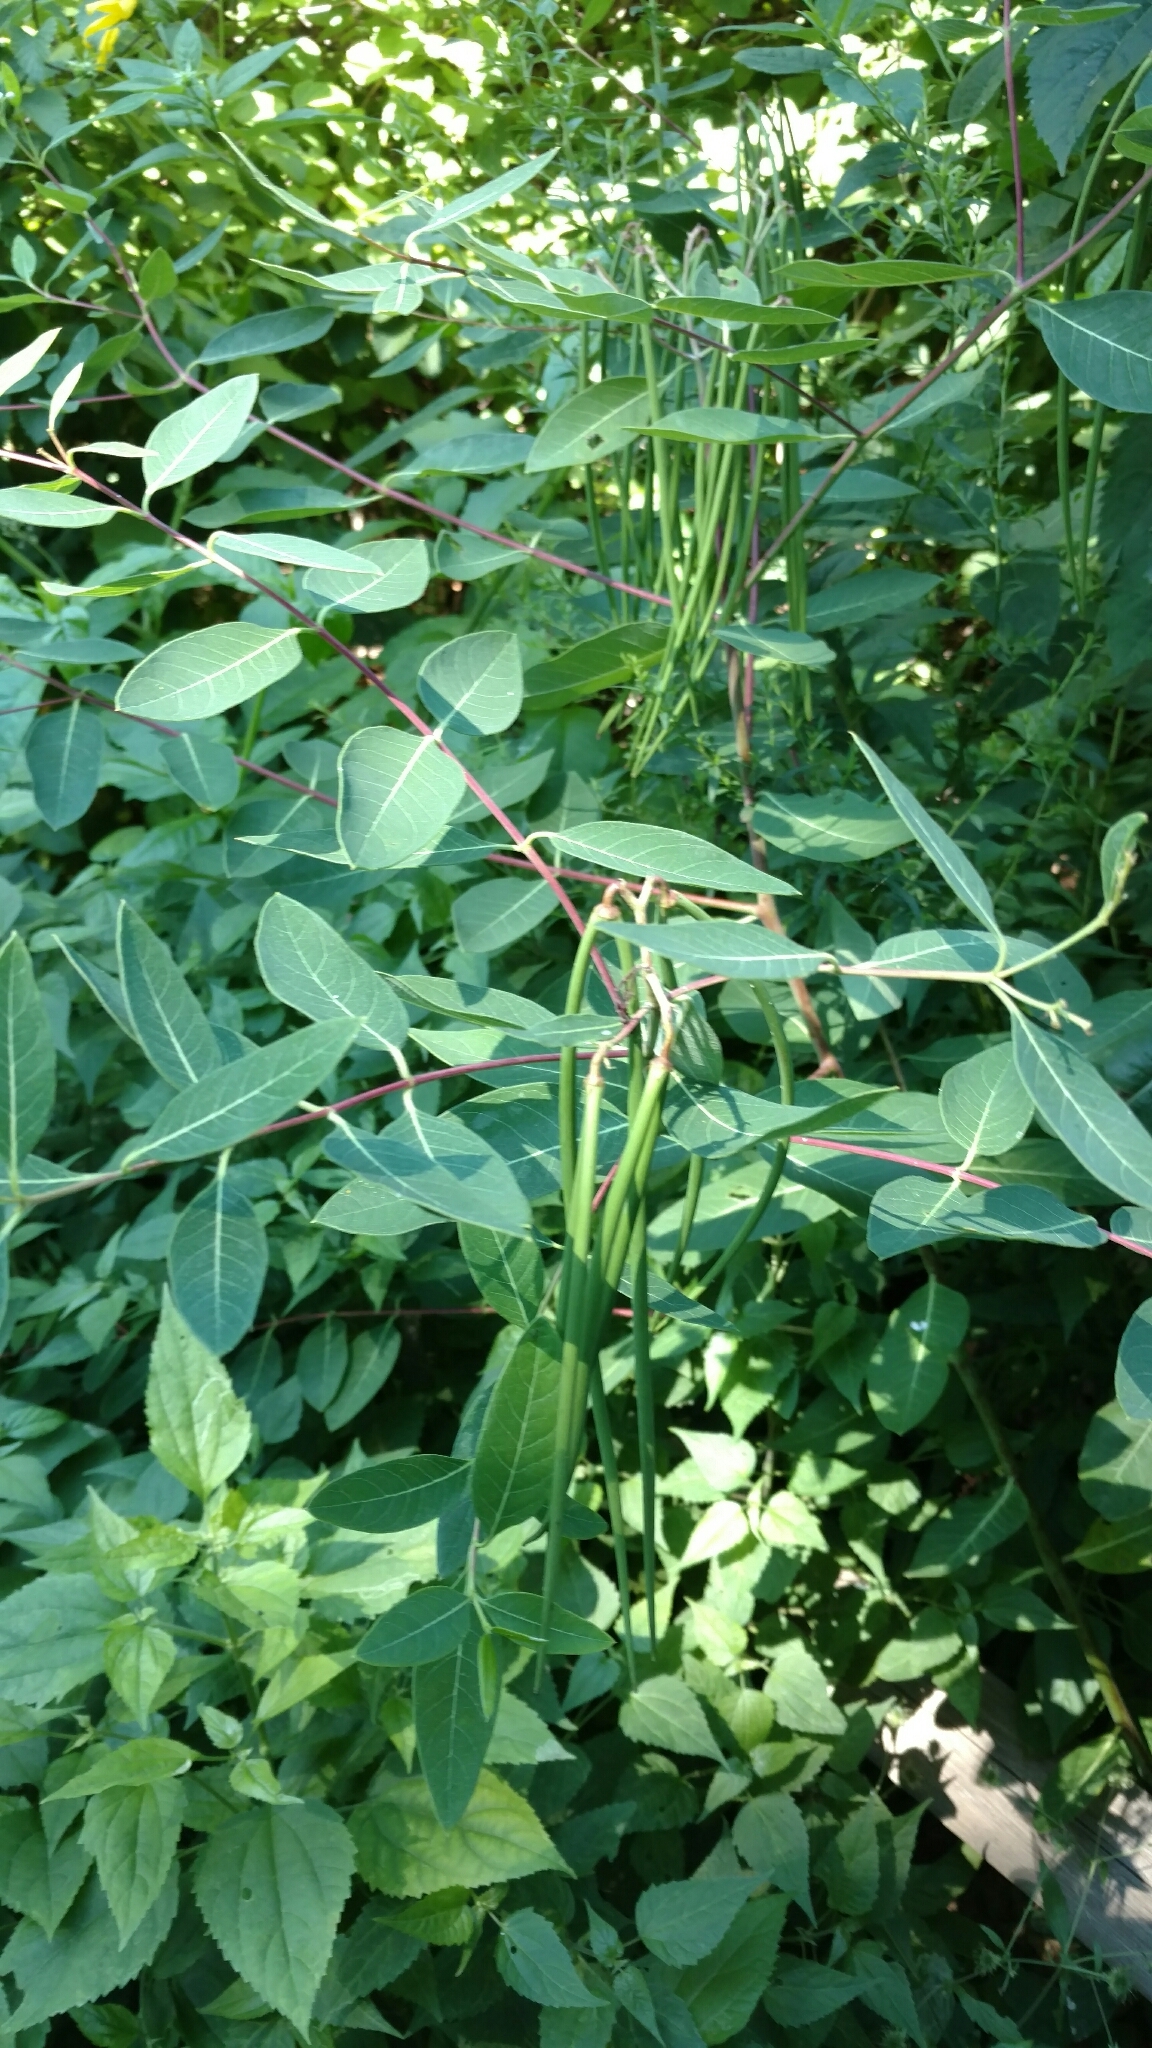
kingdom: Plantae
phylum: Tracheophyta
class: Magnoliopsida
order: Gentianales
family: Apocynaceae
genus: Apocynum
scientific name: Apocynum cannabinum
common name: Hemp dogbane
